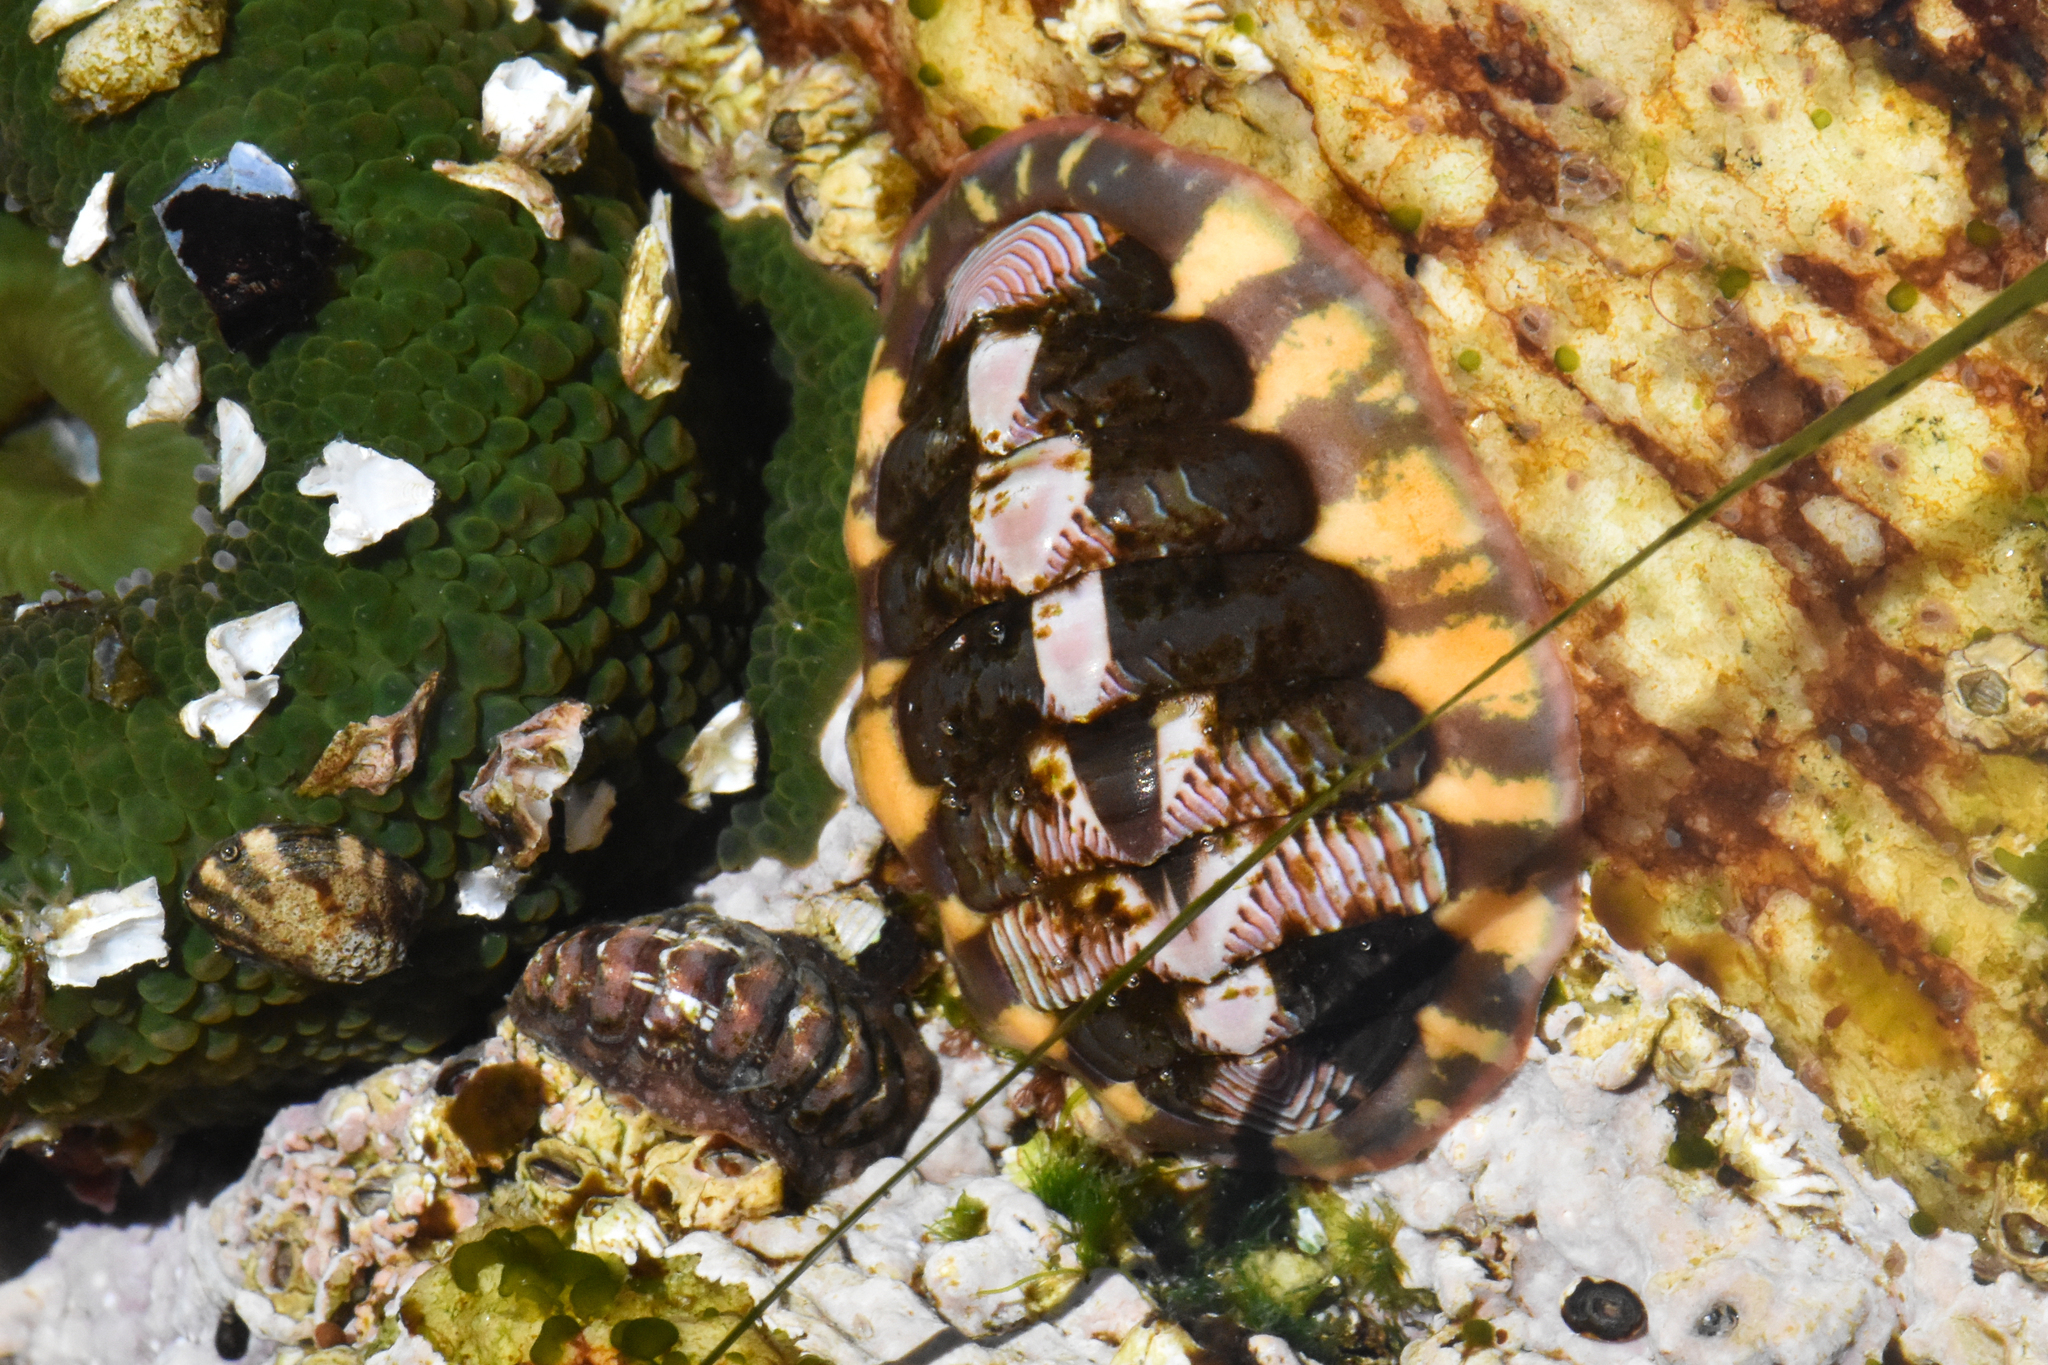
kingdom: Animalia
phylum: Mollusca
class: Polyplacophora
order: Chitonida
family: Tonicellidae
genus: Tonicella
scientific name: Tonicella lineata
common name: Lined chiton
